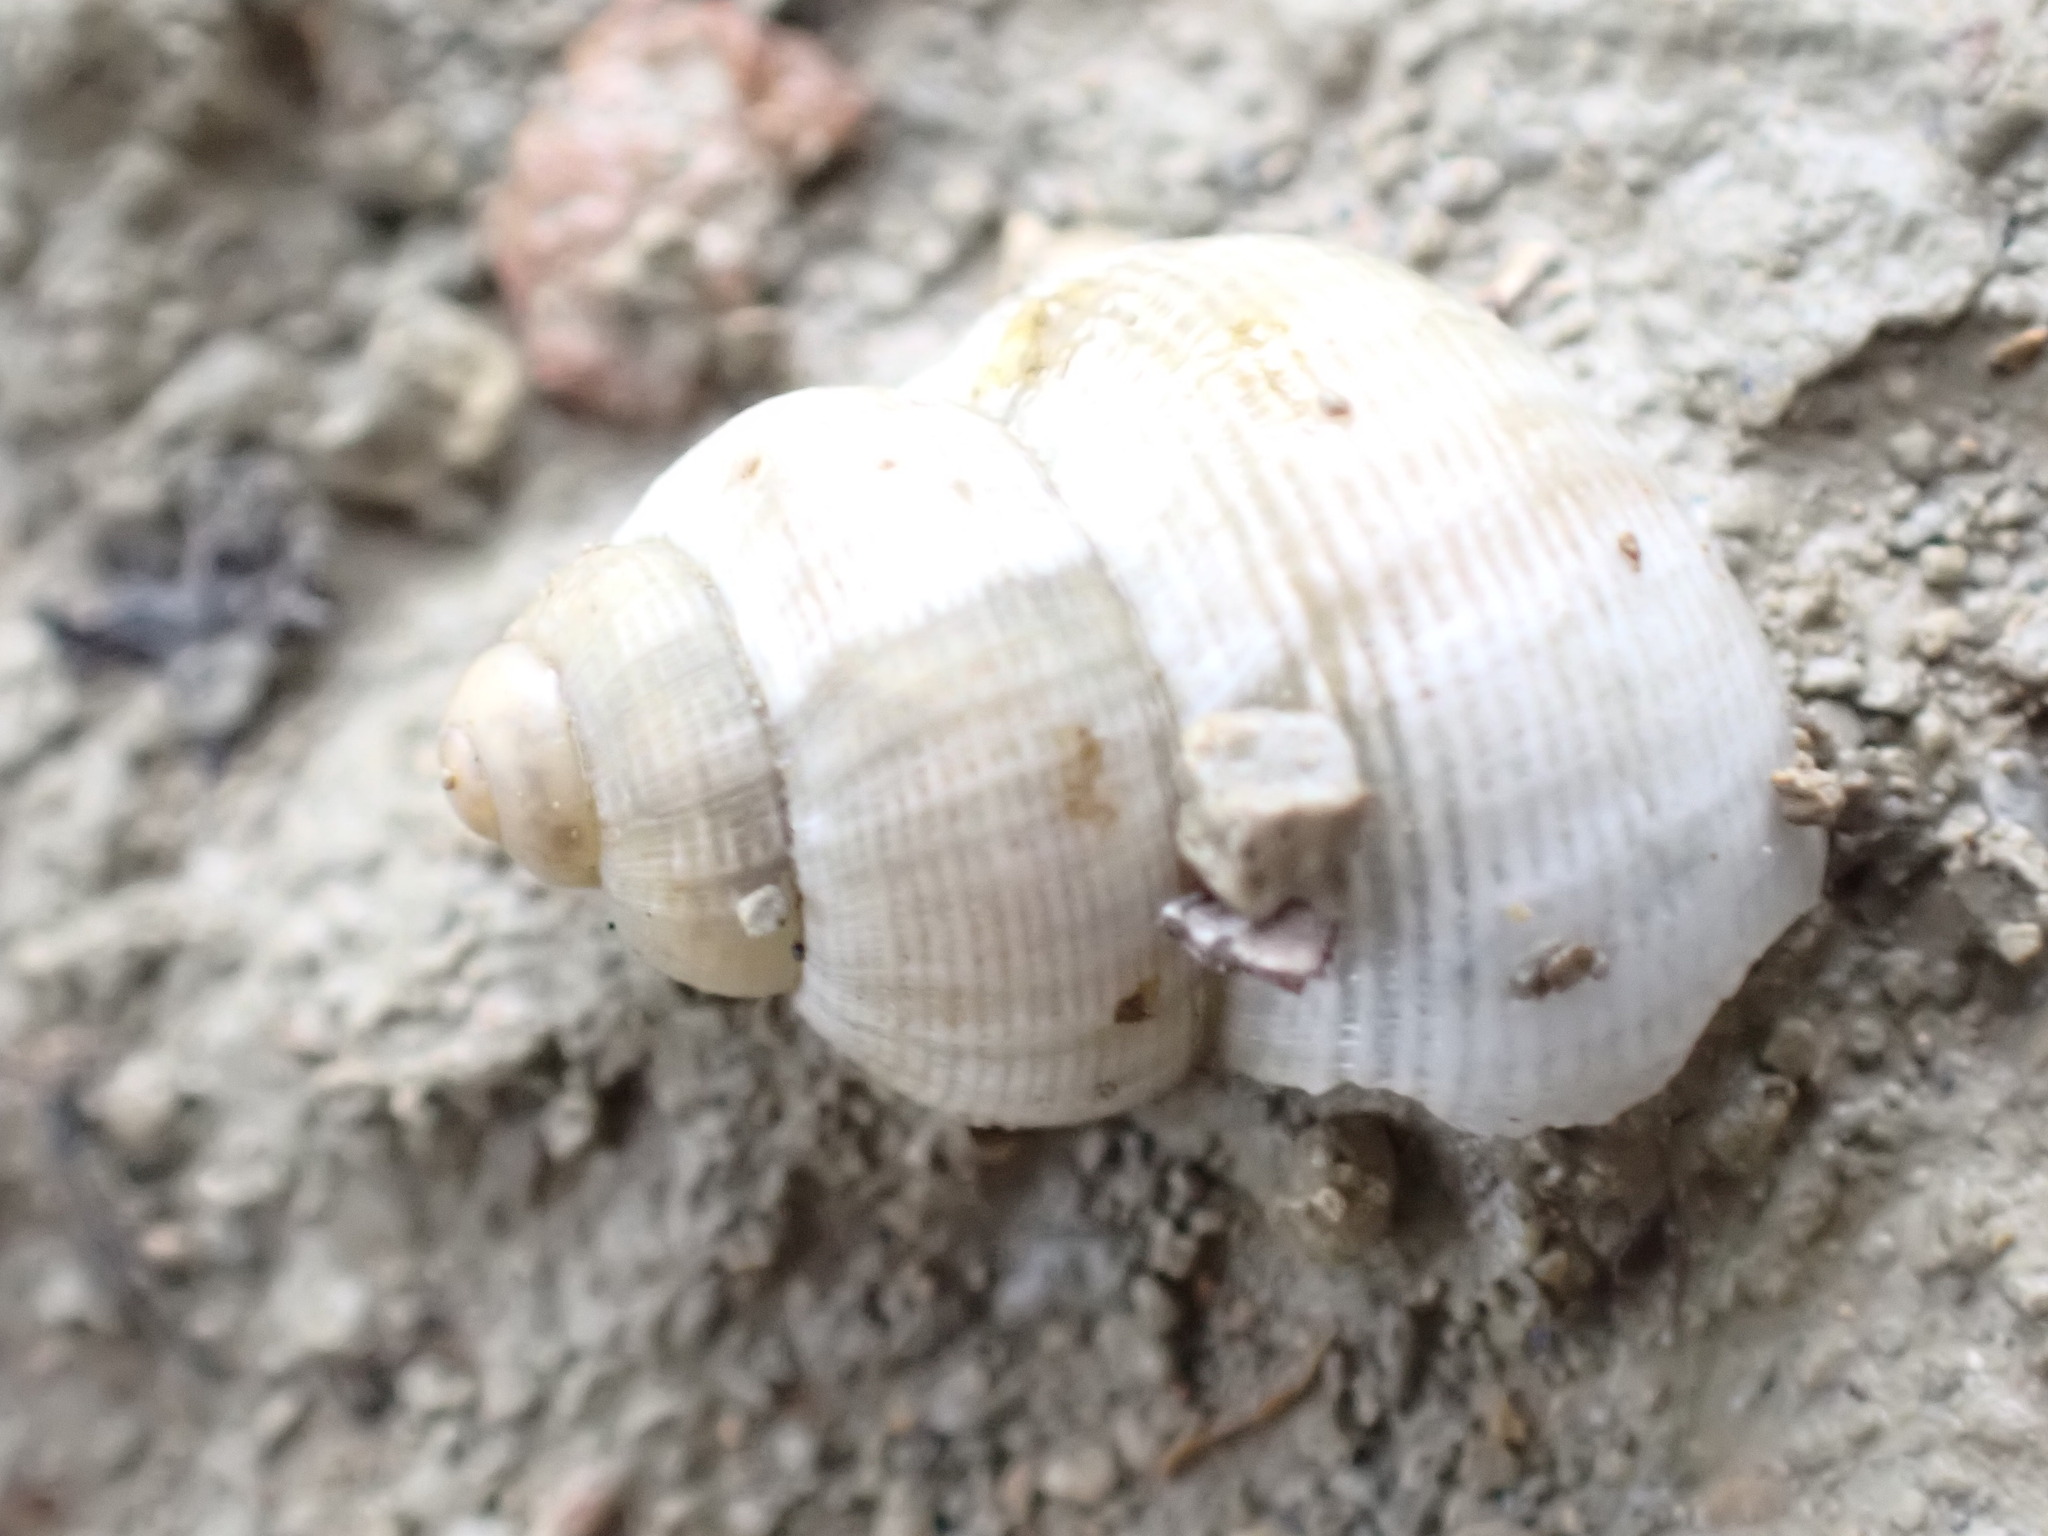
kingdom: Animalia
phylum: Mollusca
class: Gastropoda
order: Littorinimorpha
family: Pomatiidae
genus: Pomatias
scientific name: Pomatias elegans
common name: Red-mouthed snail
